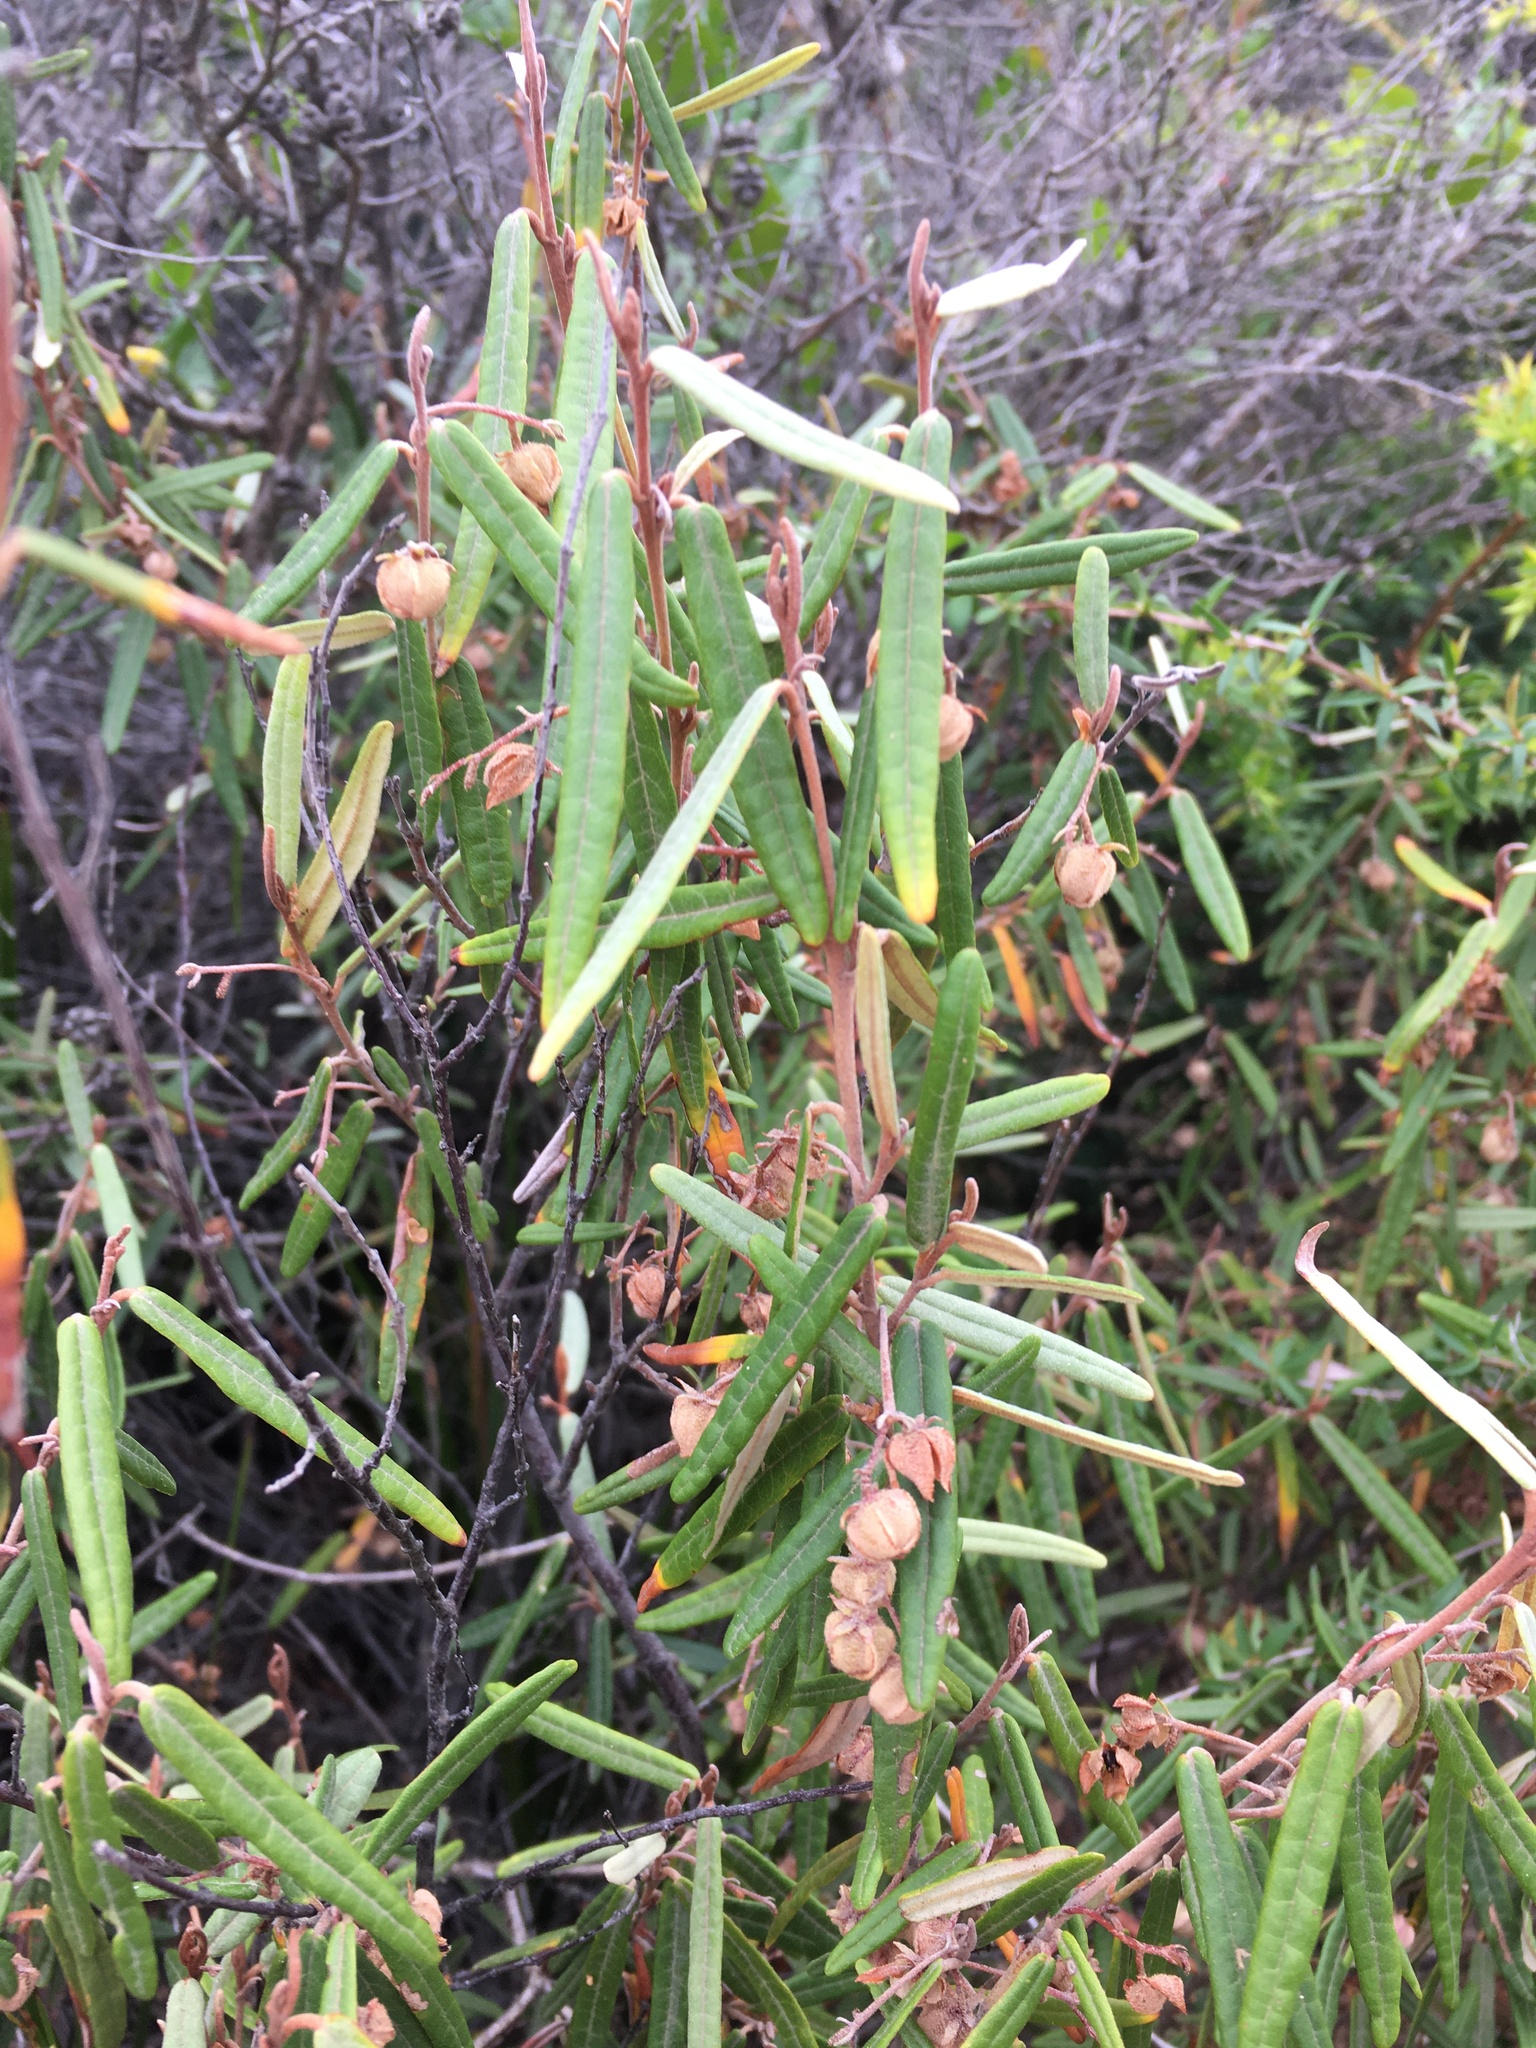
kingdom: Plantae
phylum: Tracheophyta
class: Magnoliopsida
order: Malvales
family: Malvaceae
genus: Lasiopetalum
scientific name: Lasiopetalum baueri
